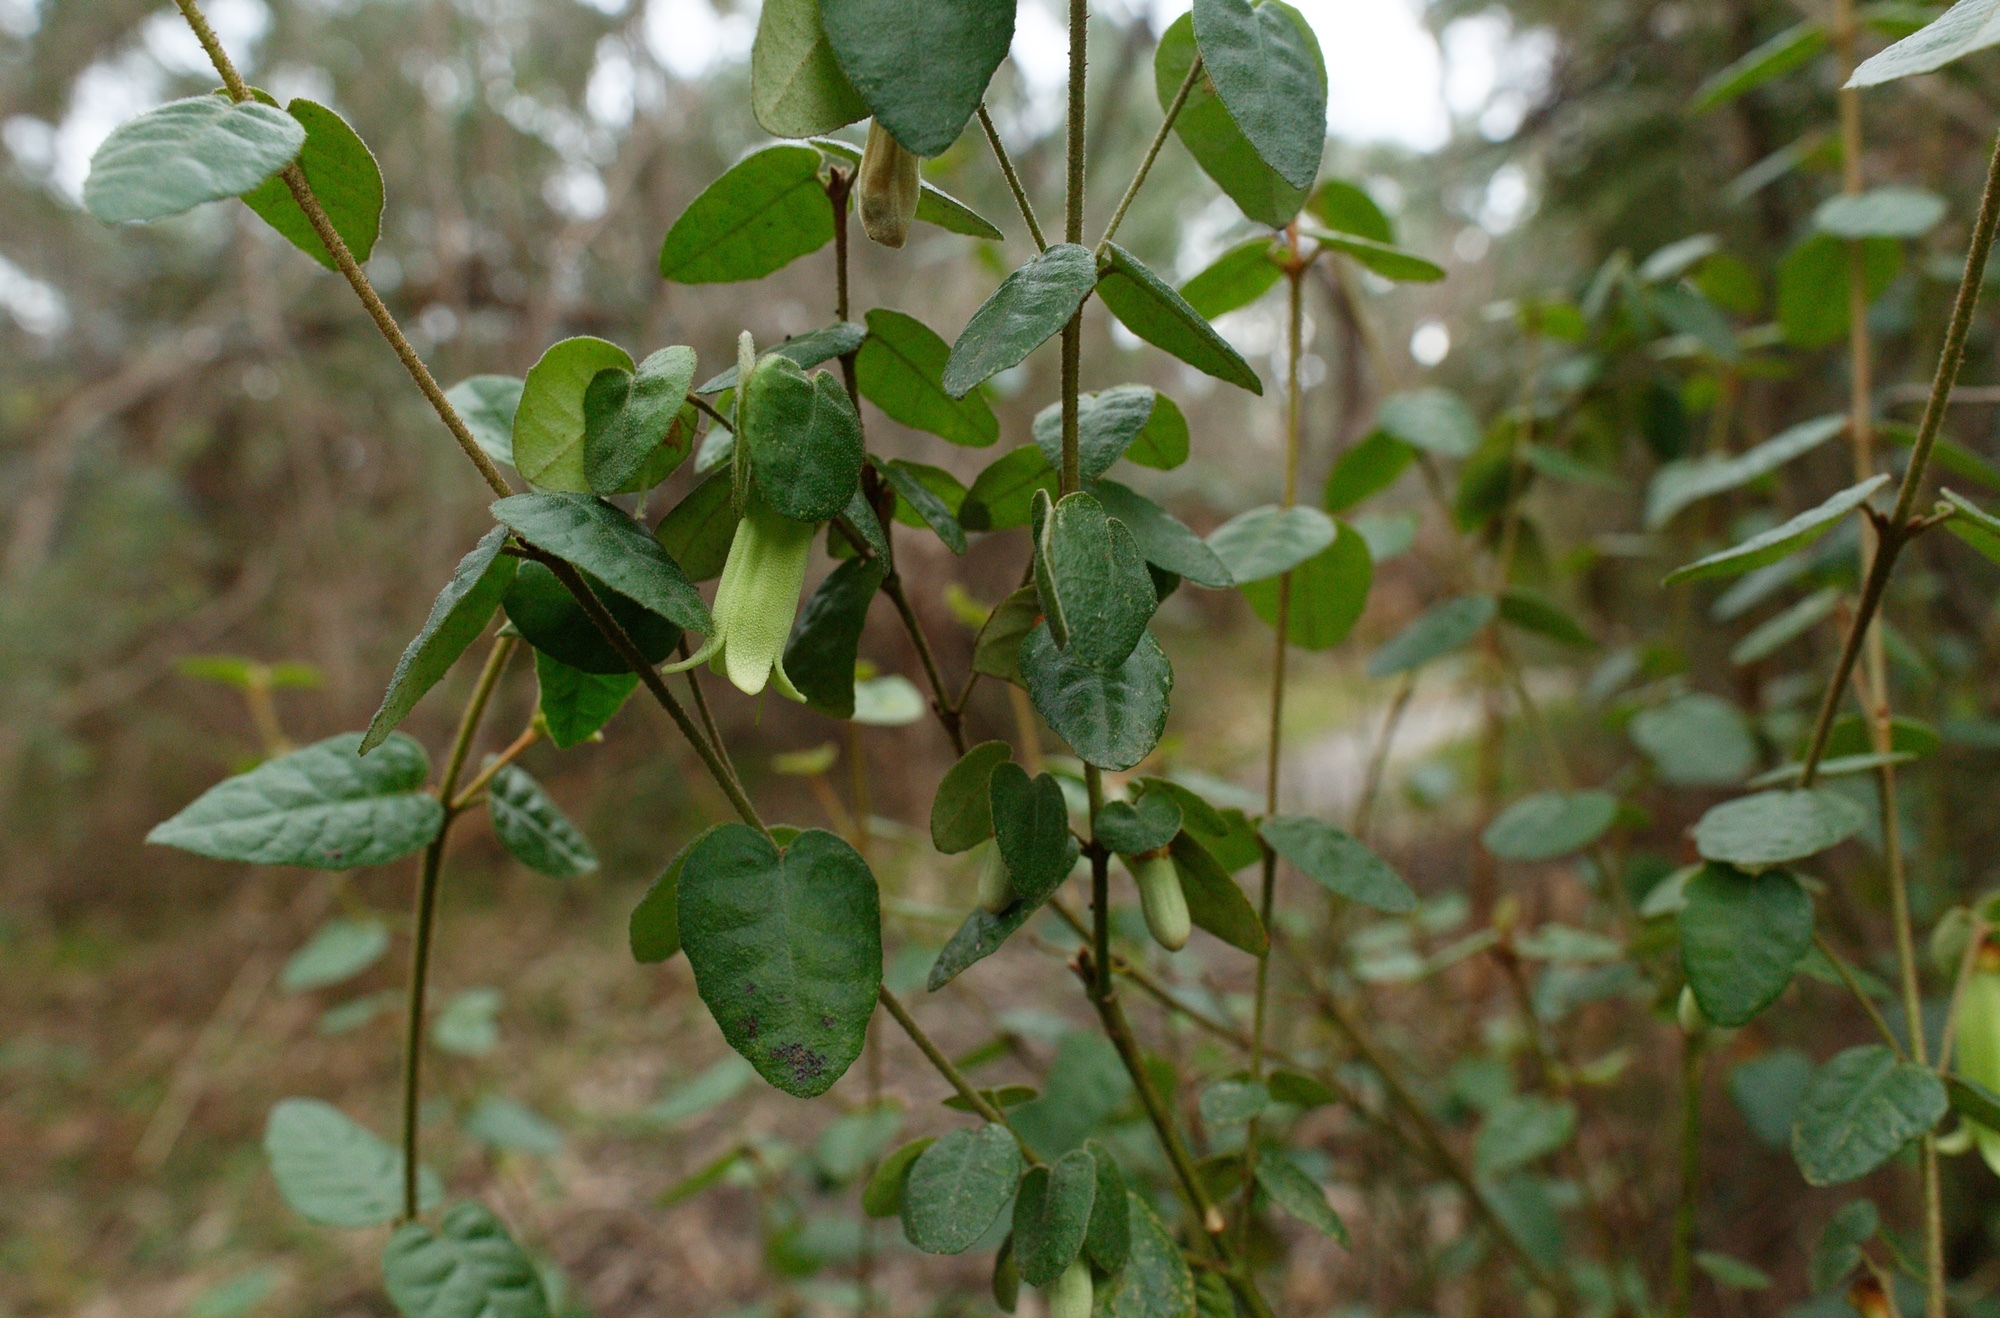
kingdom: Plantae
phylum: Tracheophyta
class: Magnoliopsida
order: Sapindales
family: Rutaceae
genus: Correa
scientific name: Correa reflexa
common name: Common correa
